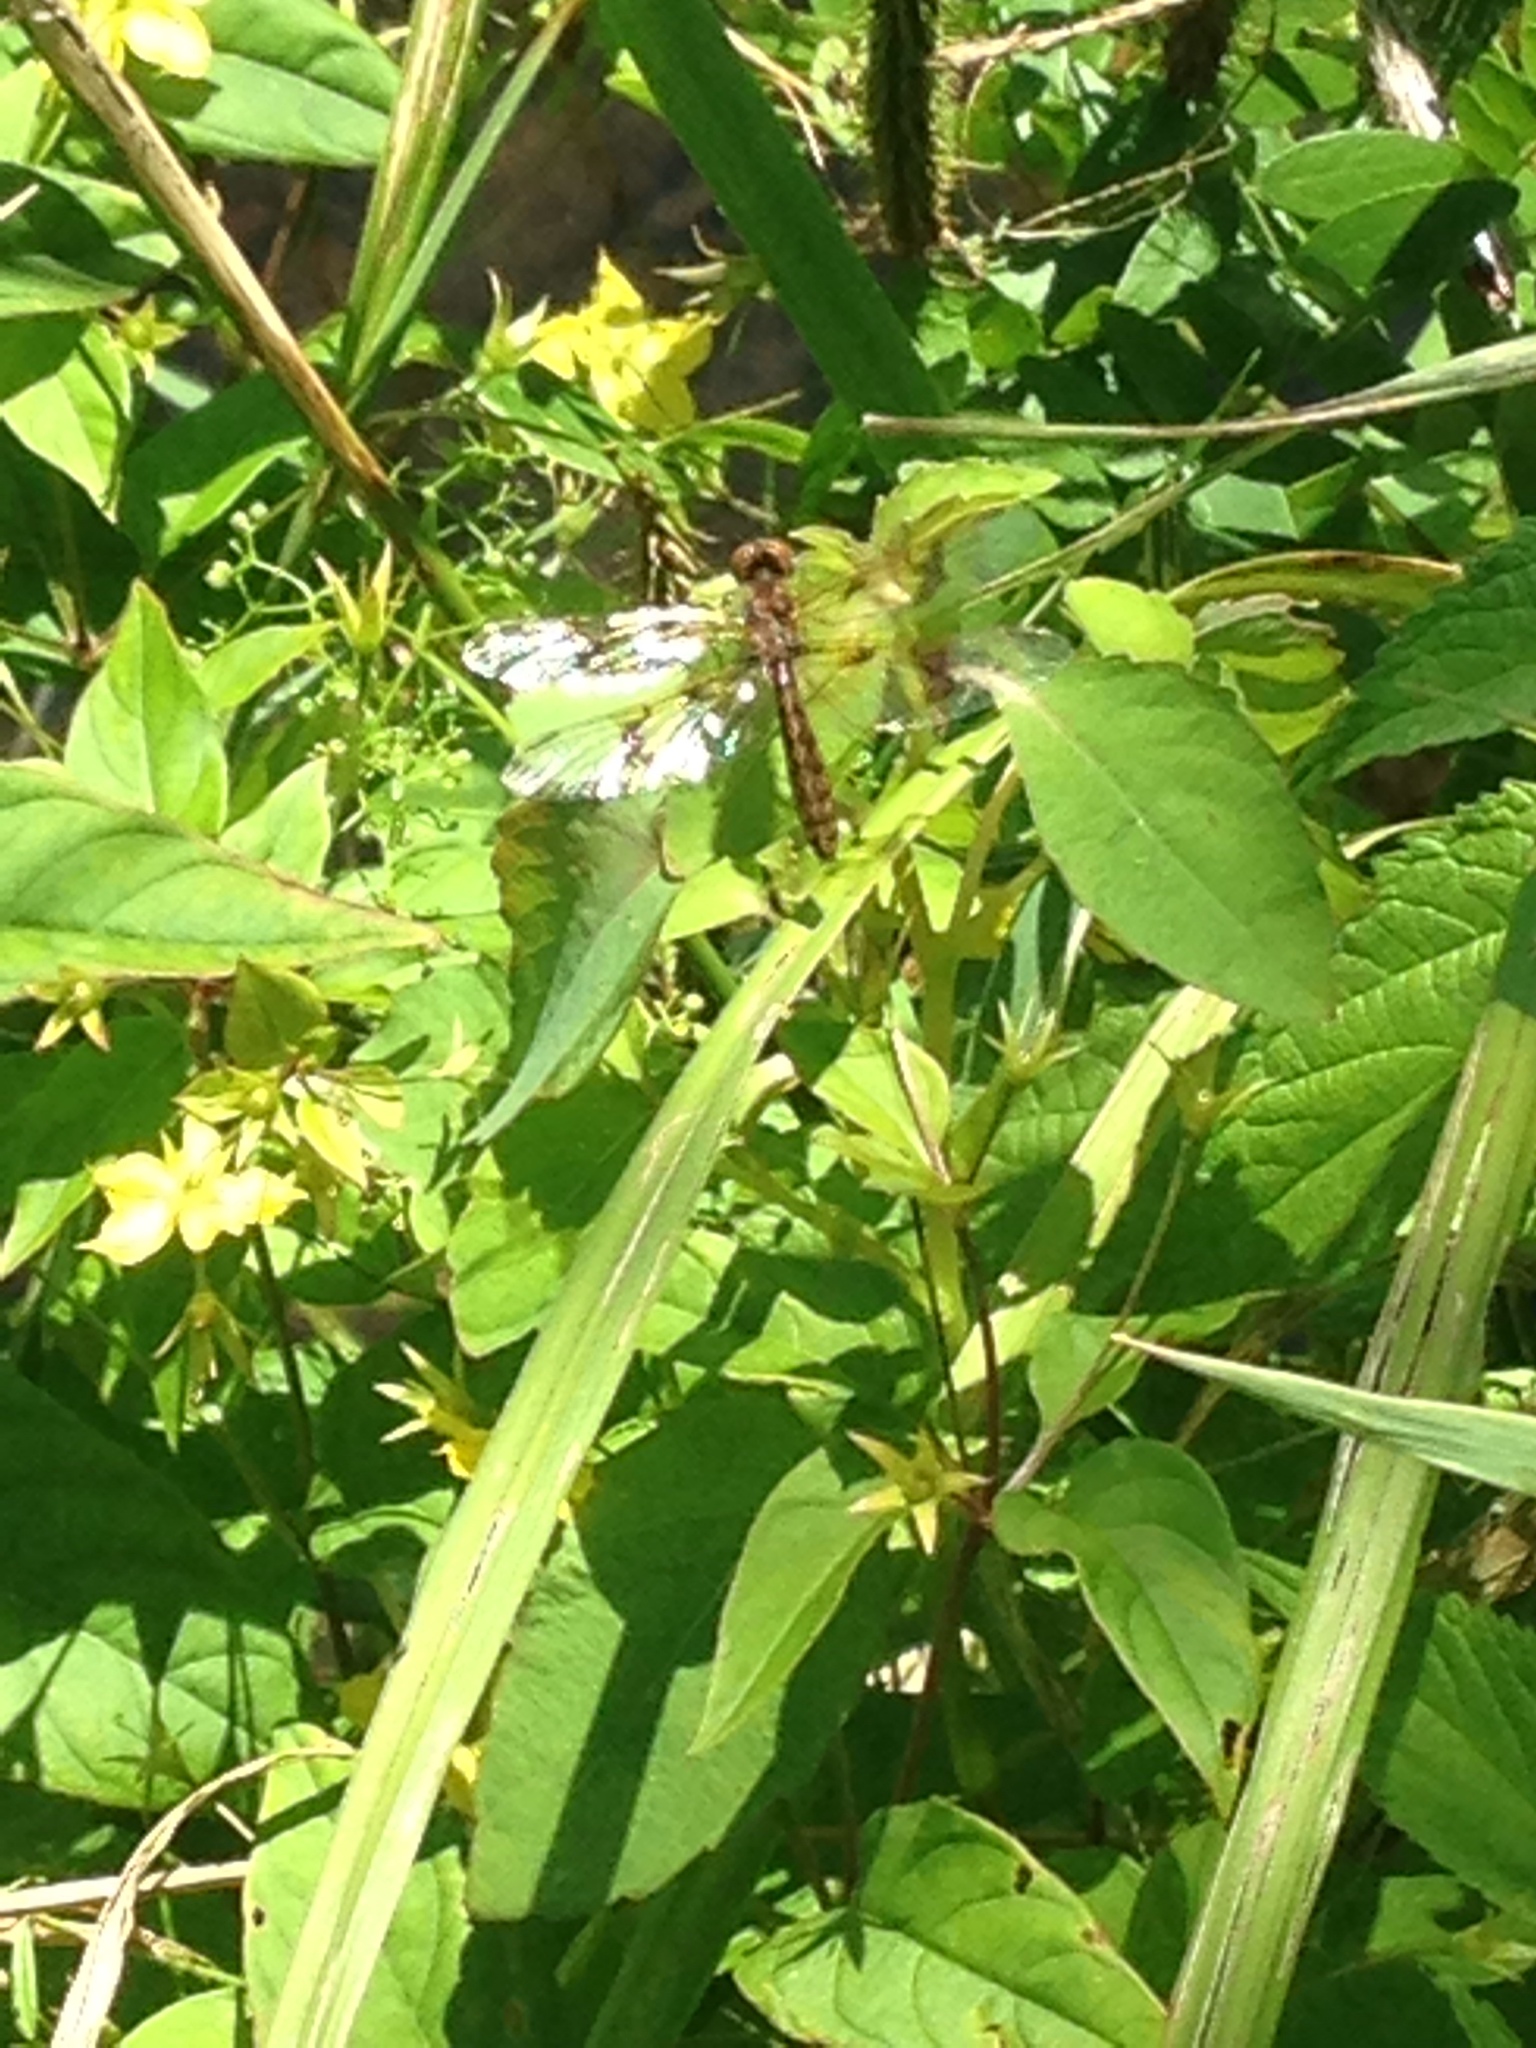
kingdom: Animalia
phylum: Arthropoda
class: Insecta
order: Odonata
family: Libellulidae
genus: Perithemis
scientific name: Perithemis tenera
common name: Eastern amberwing
